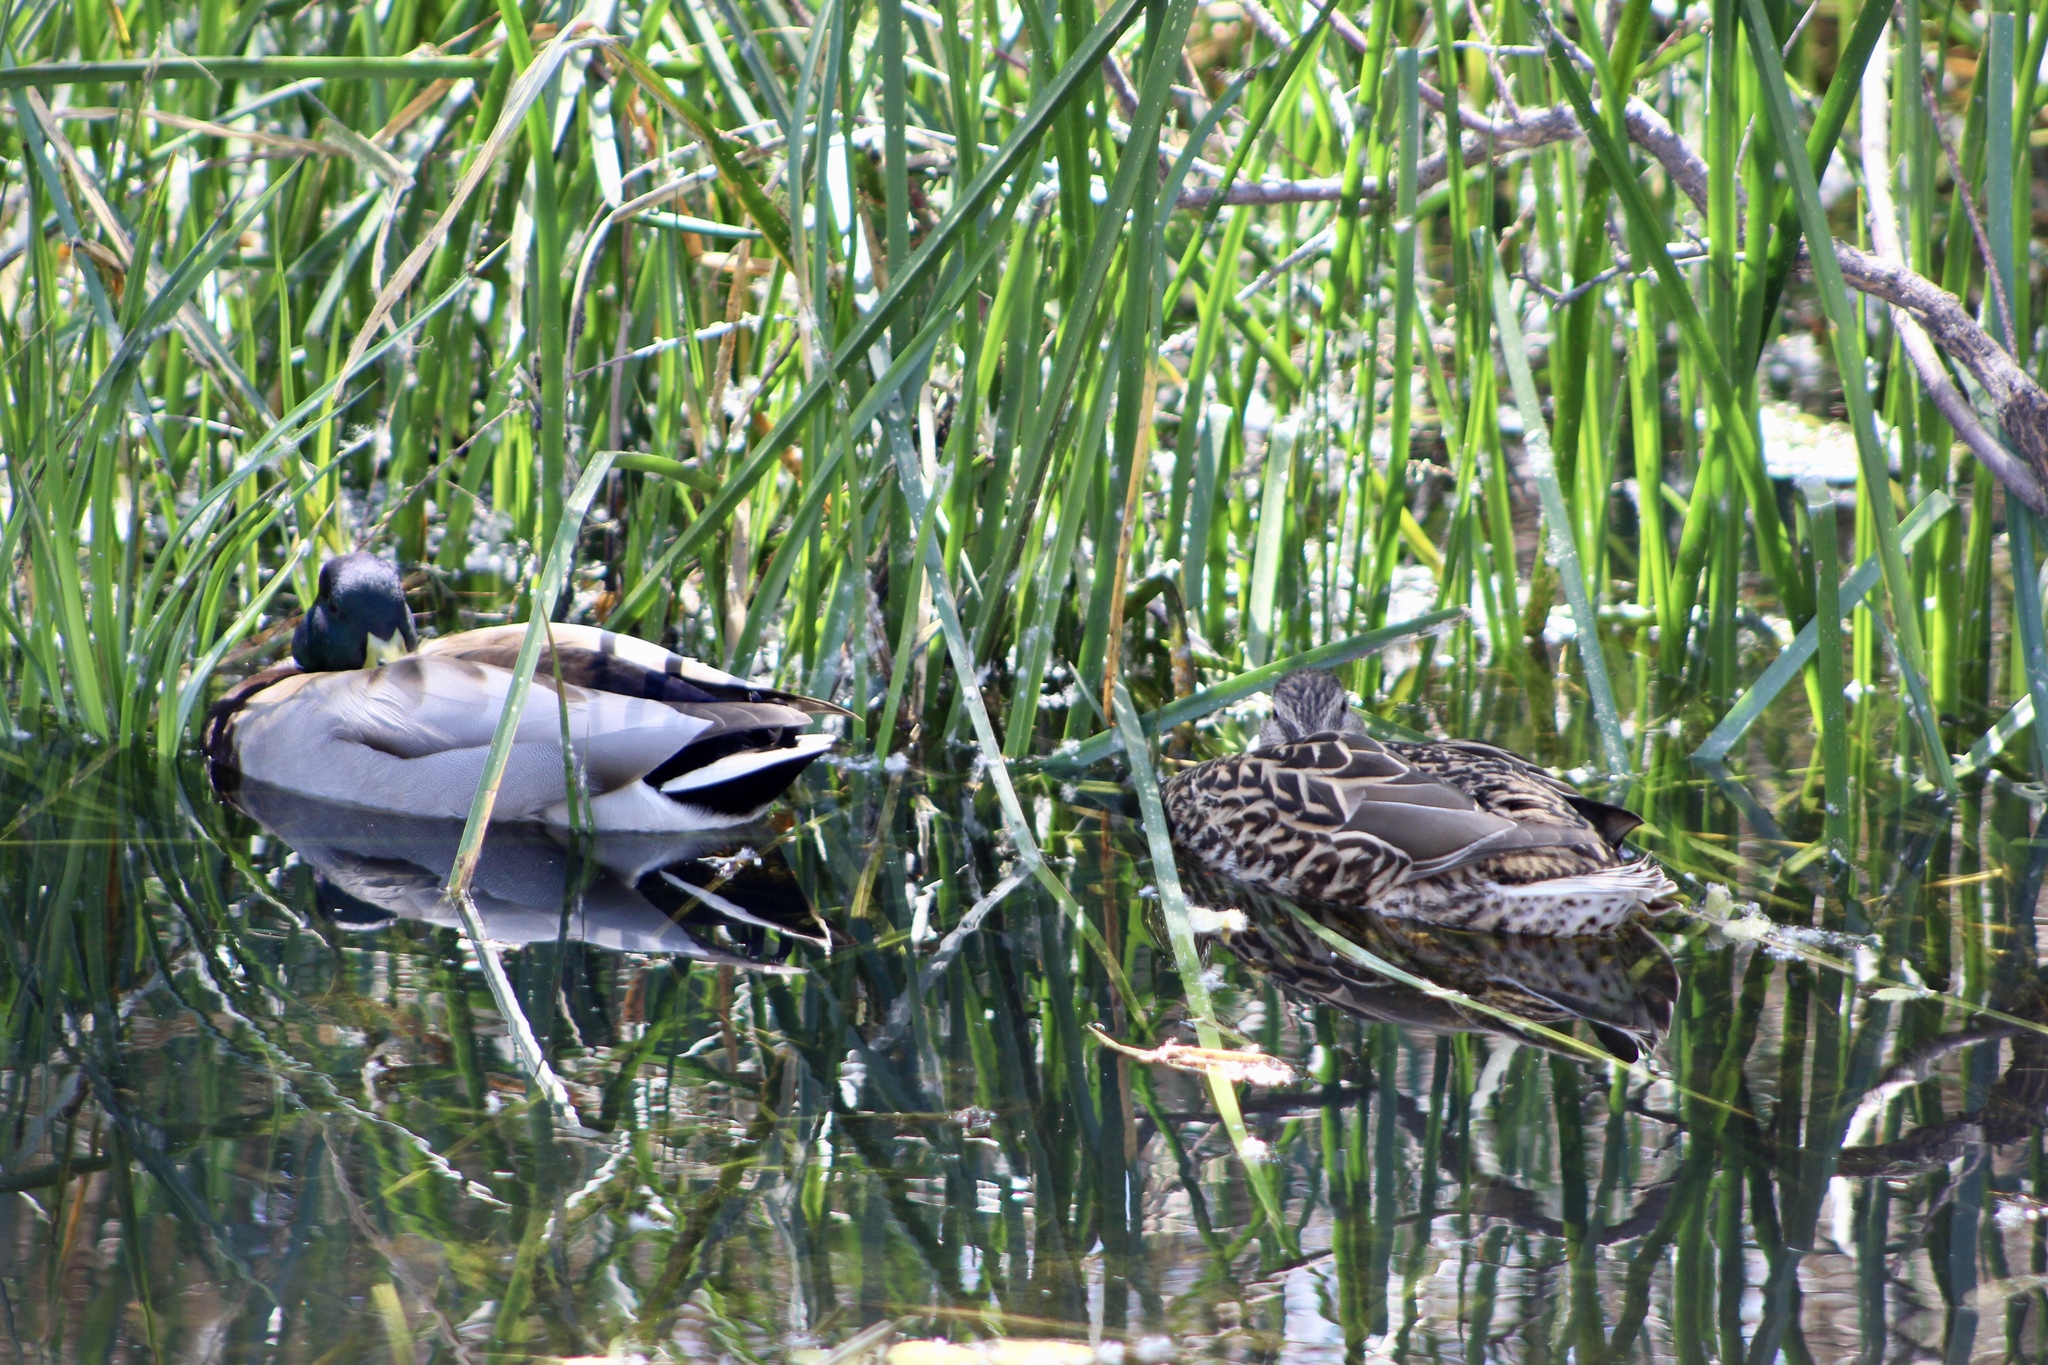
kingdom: Animalia
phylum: Chordata
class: Aves
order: Anseriformes
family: Anatidae
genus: Anas
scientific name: Anas platyrhynchos
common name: Mallard
